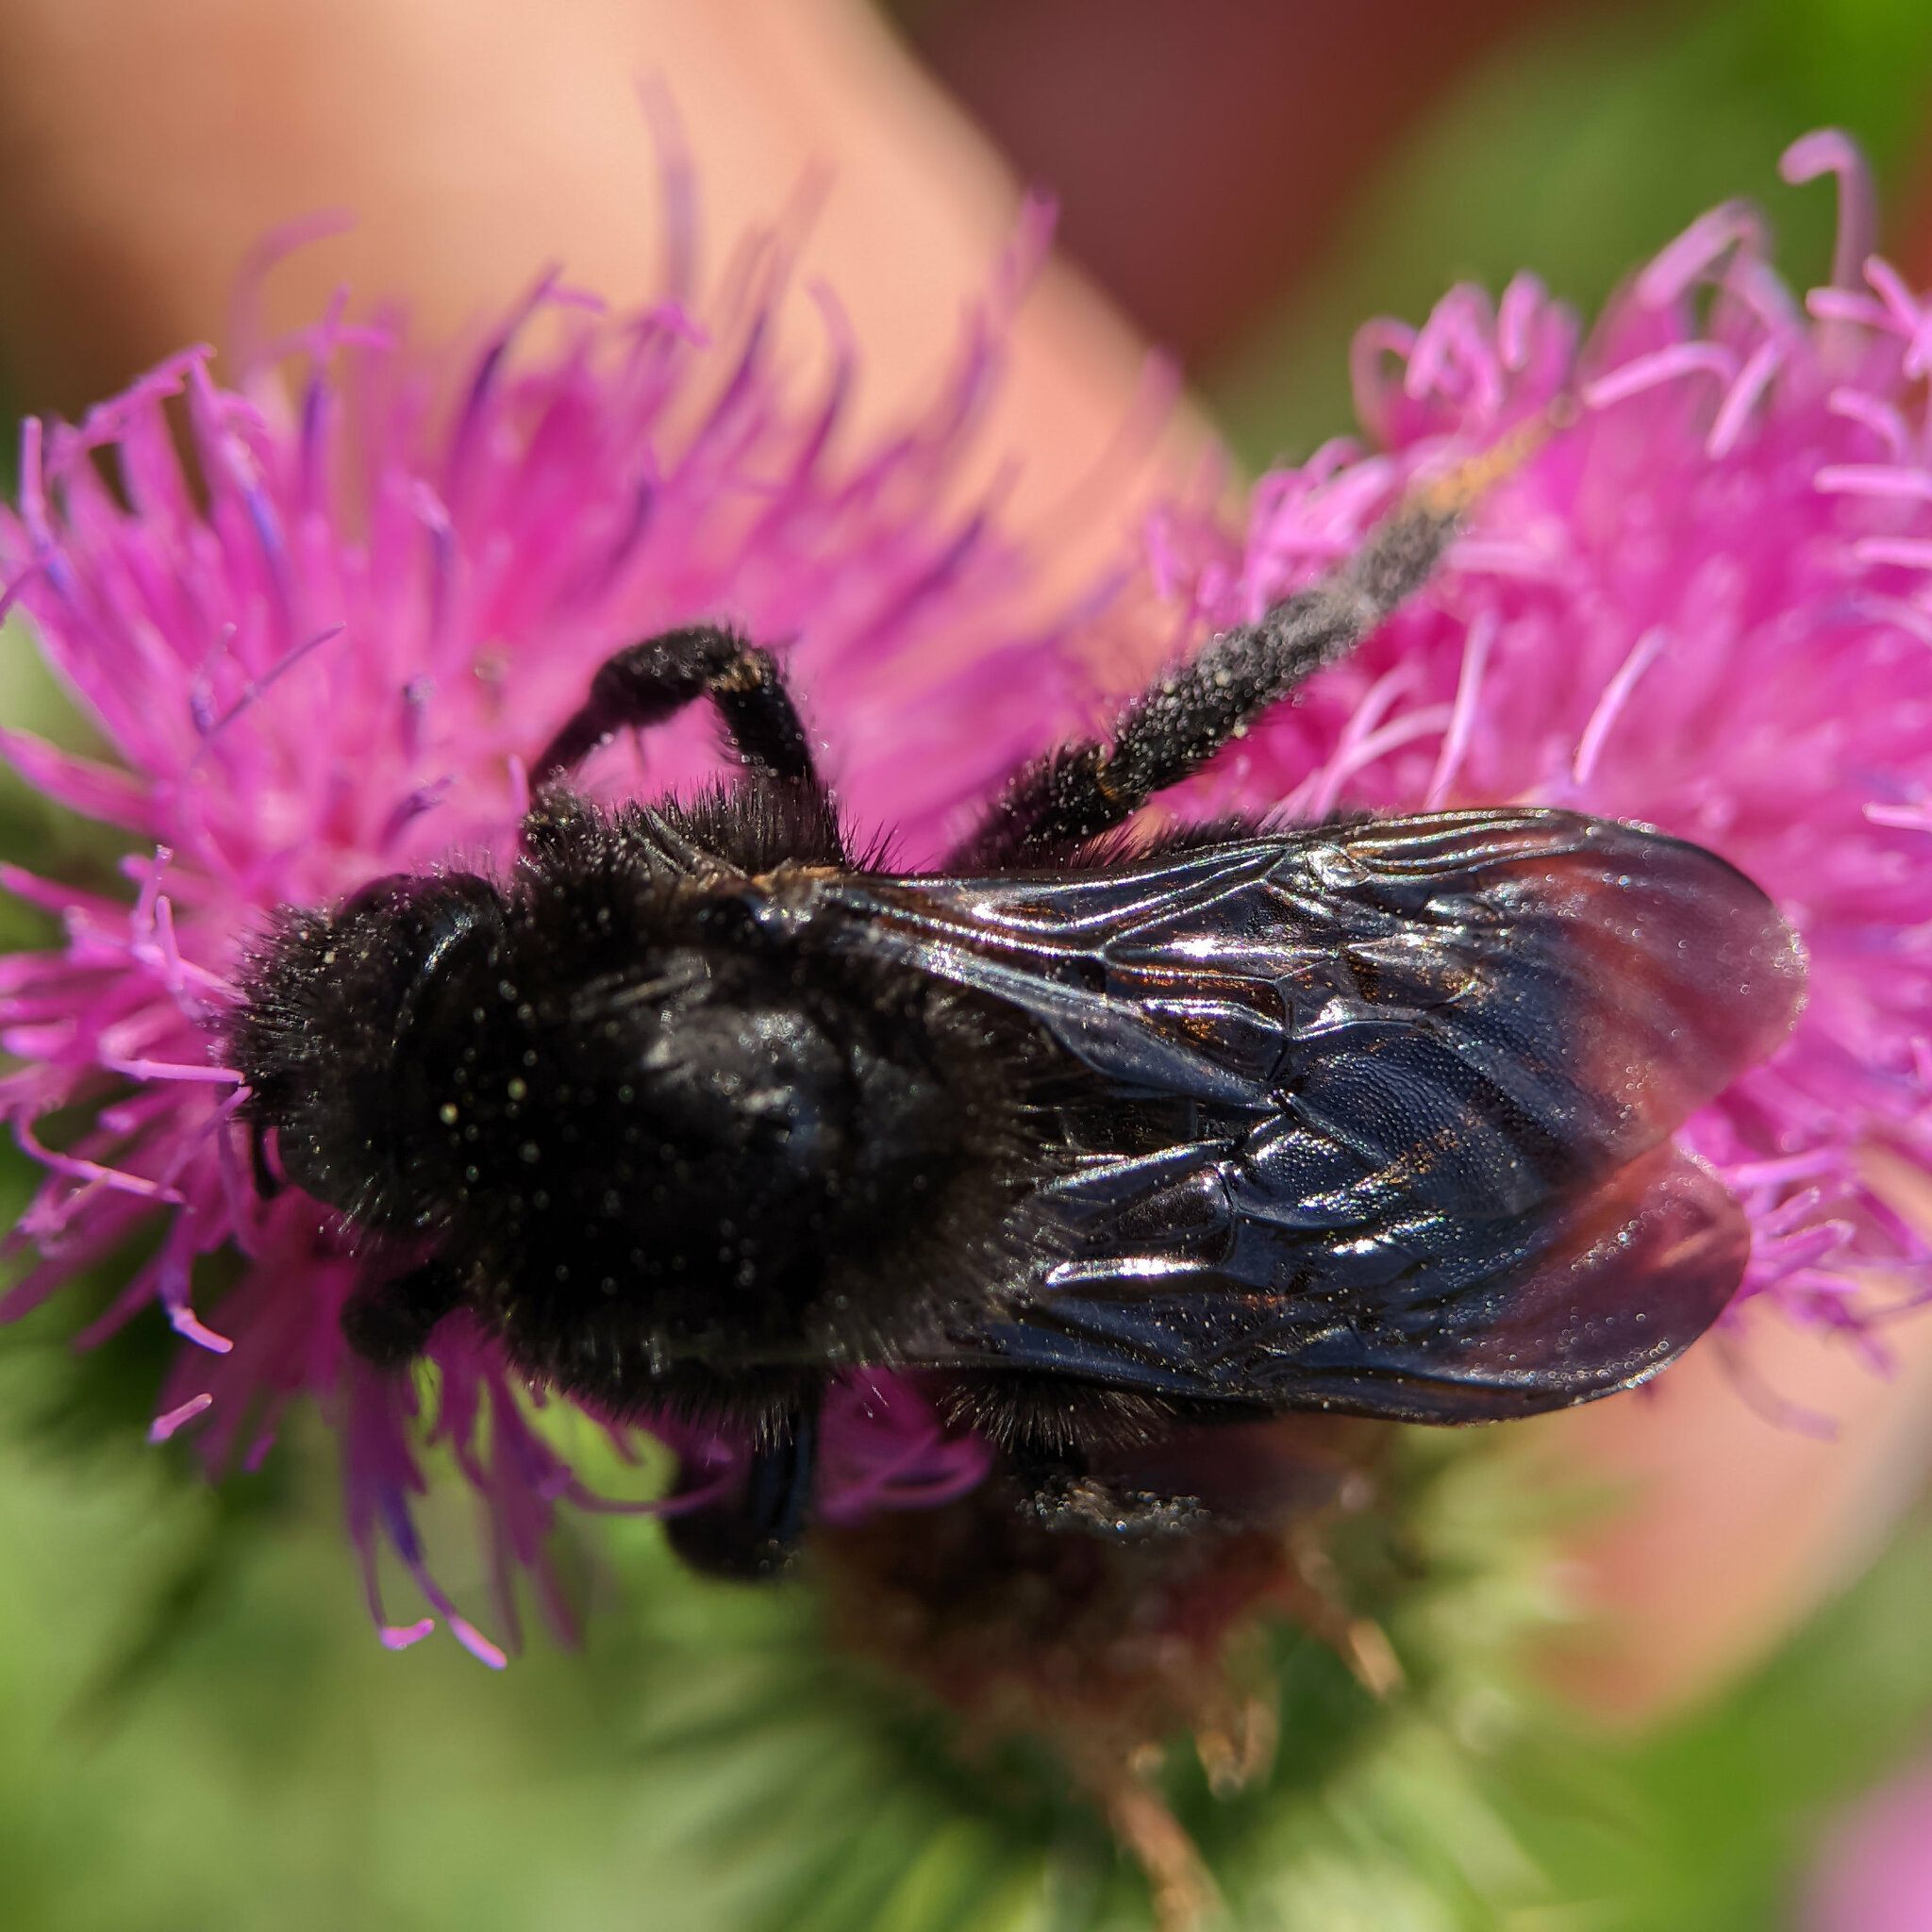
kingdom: Animalia
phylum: Arthropoda
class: Insecta
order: Hymenoptera
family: Apidae
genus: Bombus
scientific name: Bombus rupestris
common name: Hill cuckoo-bee
